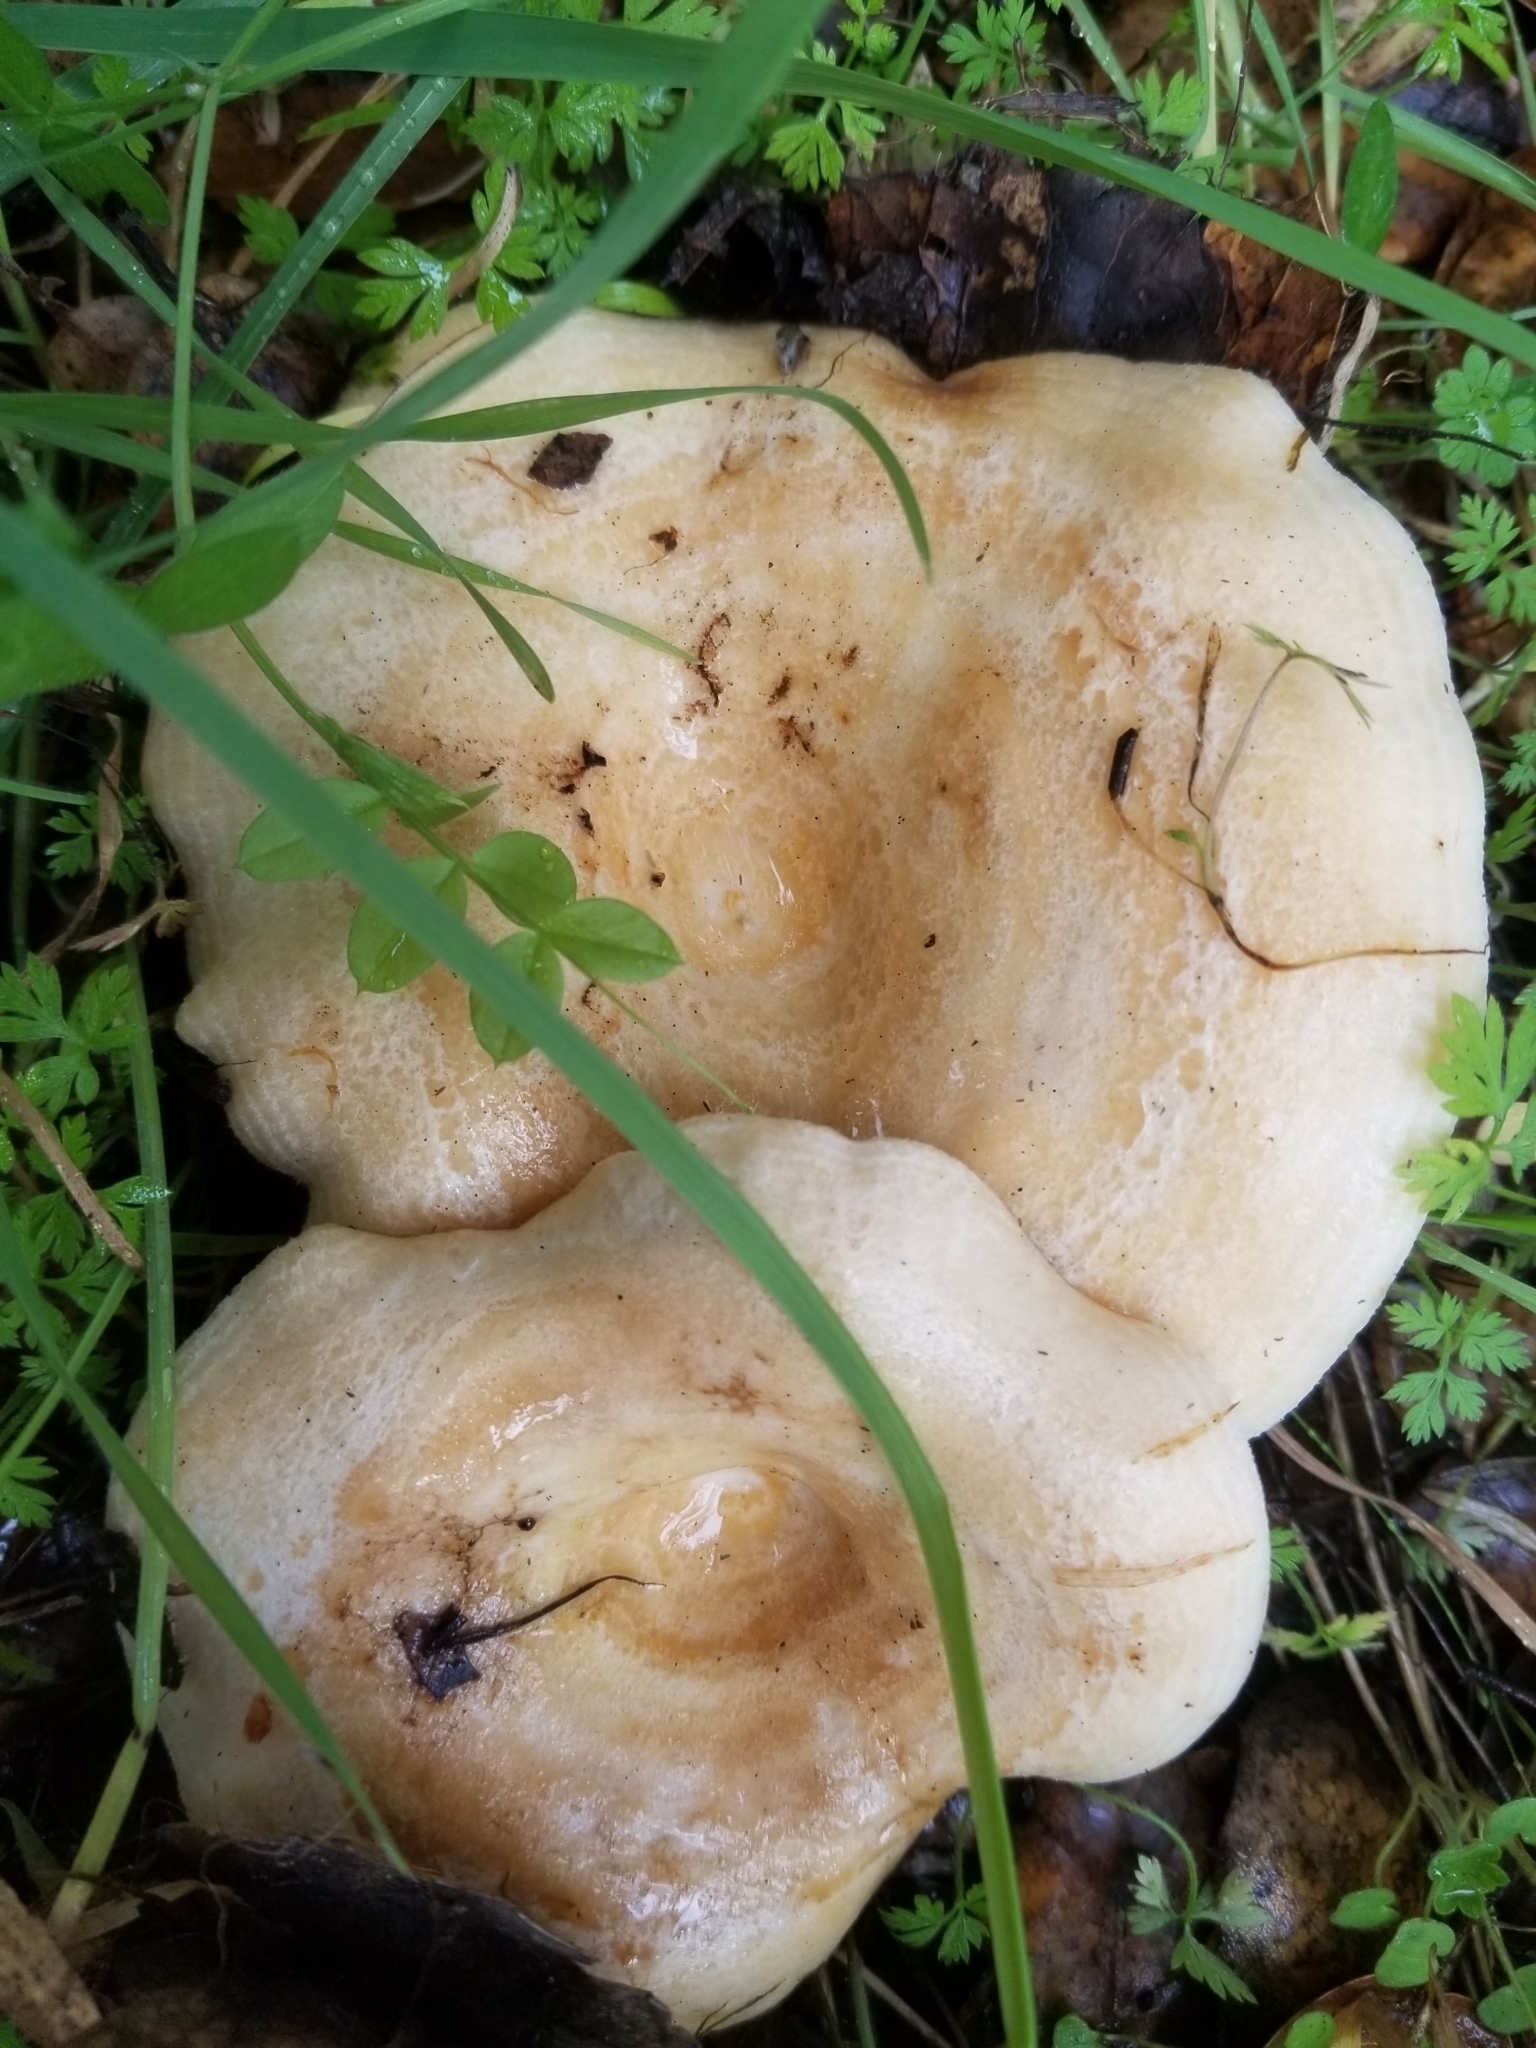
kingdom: Fungi
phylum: Basidiomycota
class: Agaricomycetes
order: Russulales
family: Russulaceae
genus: Lactarius
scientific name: Lactarius alnicola
